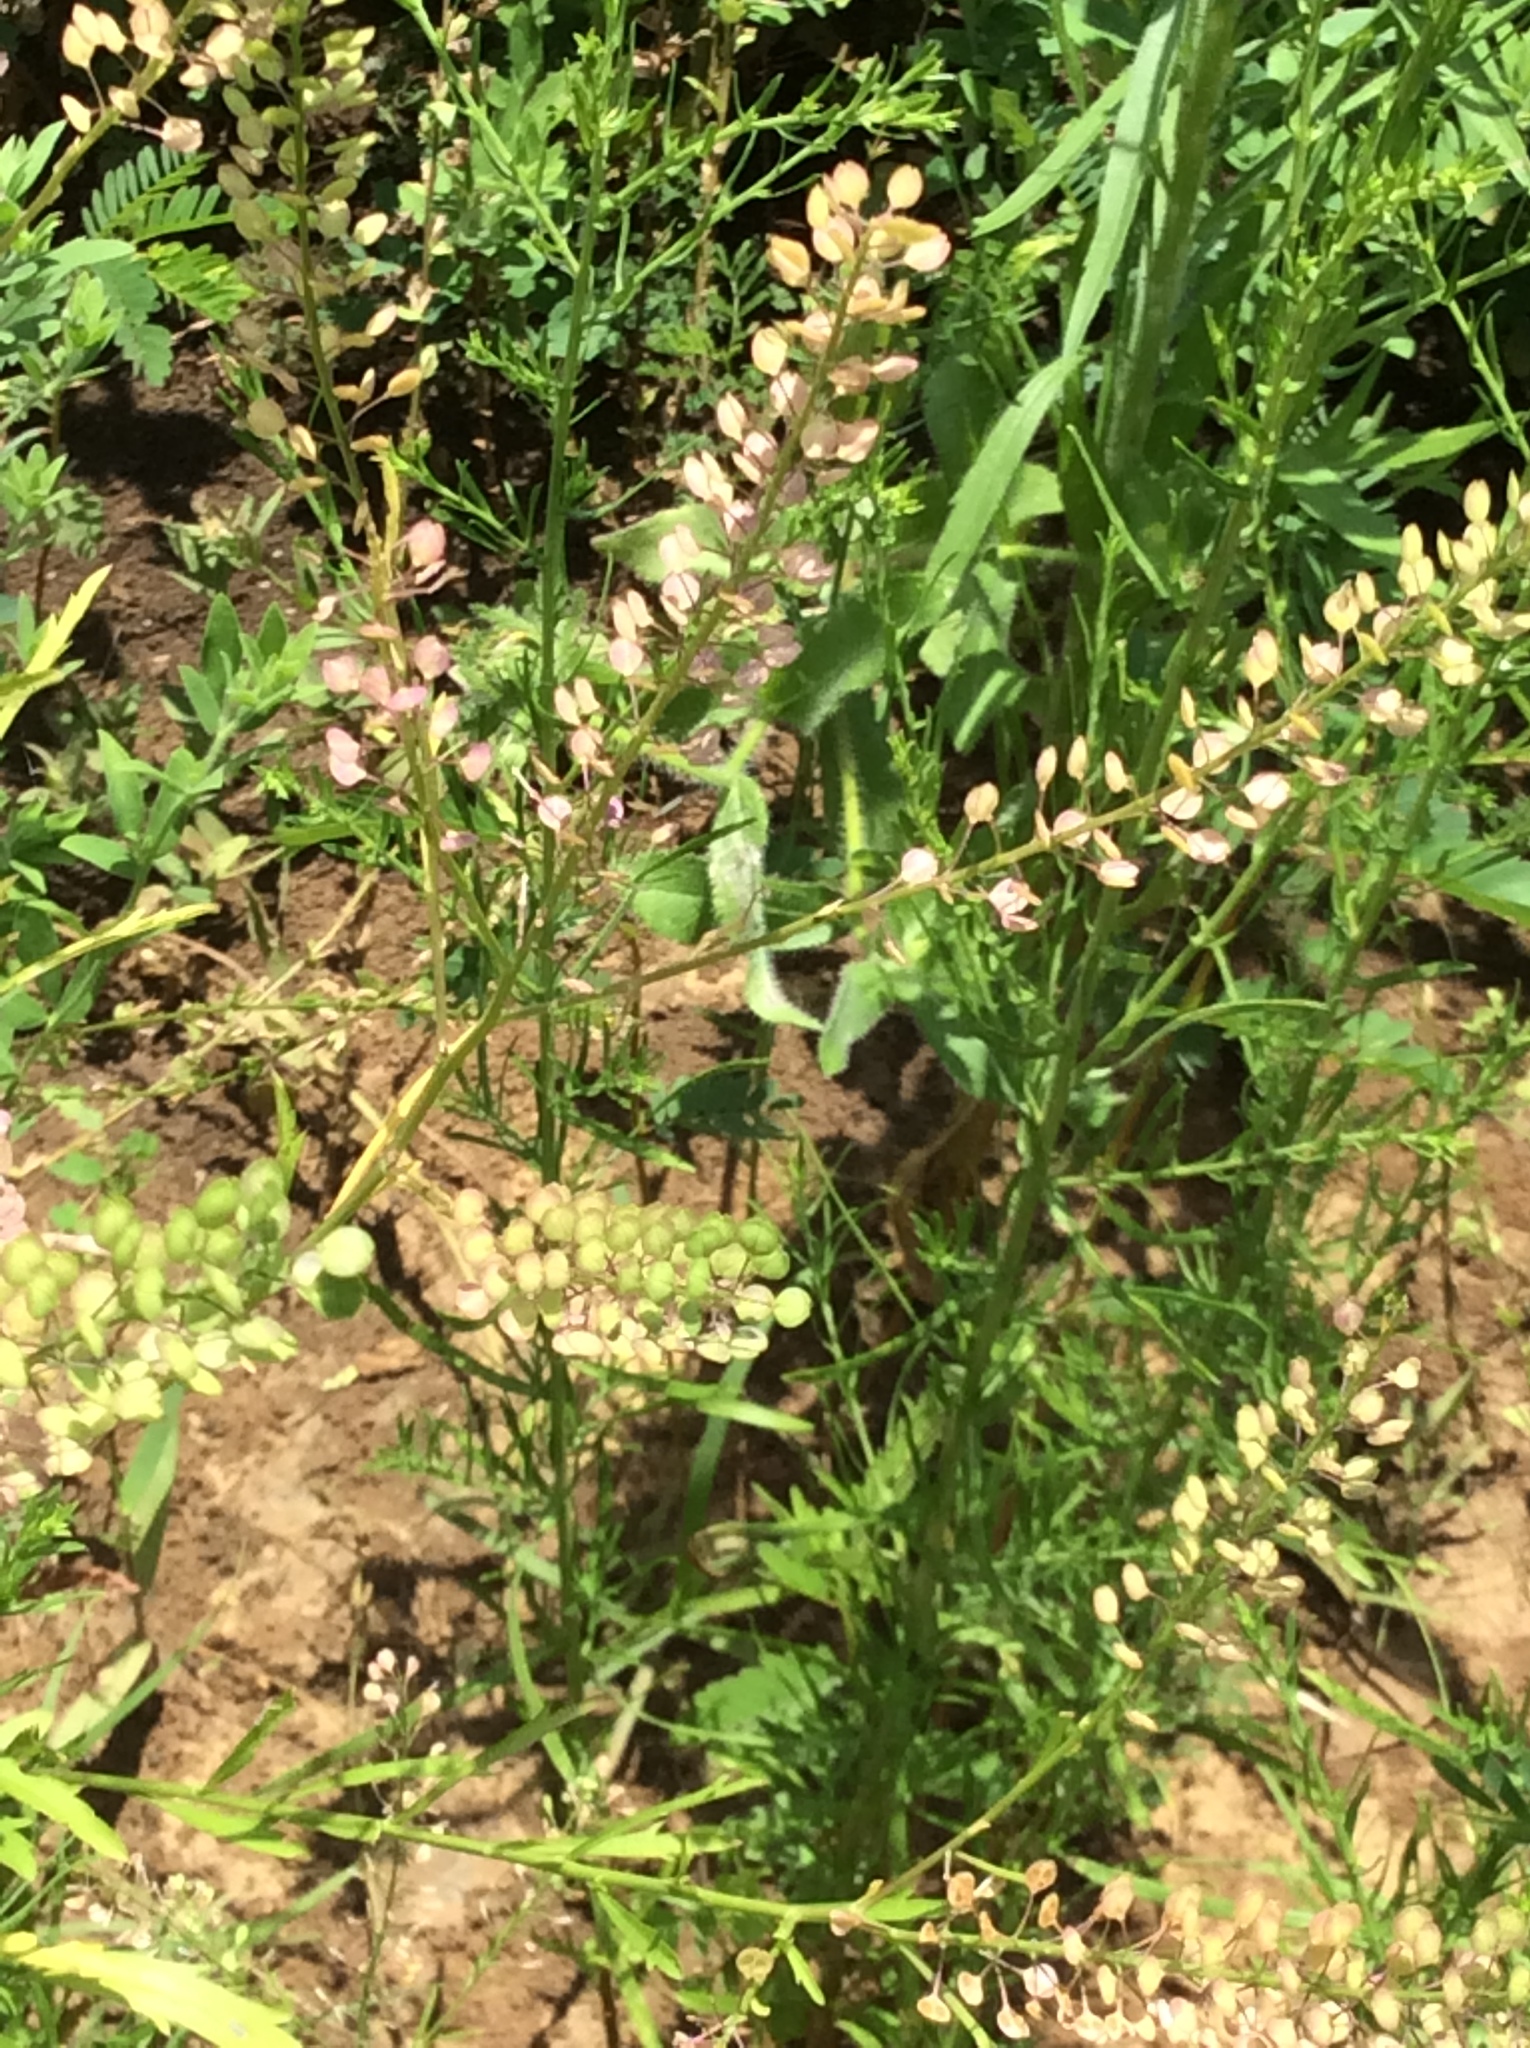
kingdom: Plantae
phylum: Tracheophyta
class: Magnoliopsida
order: Brassicales
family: Brassicaceae
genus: Lepidium
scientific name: Lepidium virginicum
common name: Least pepperwort
